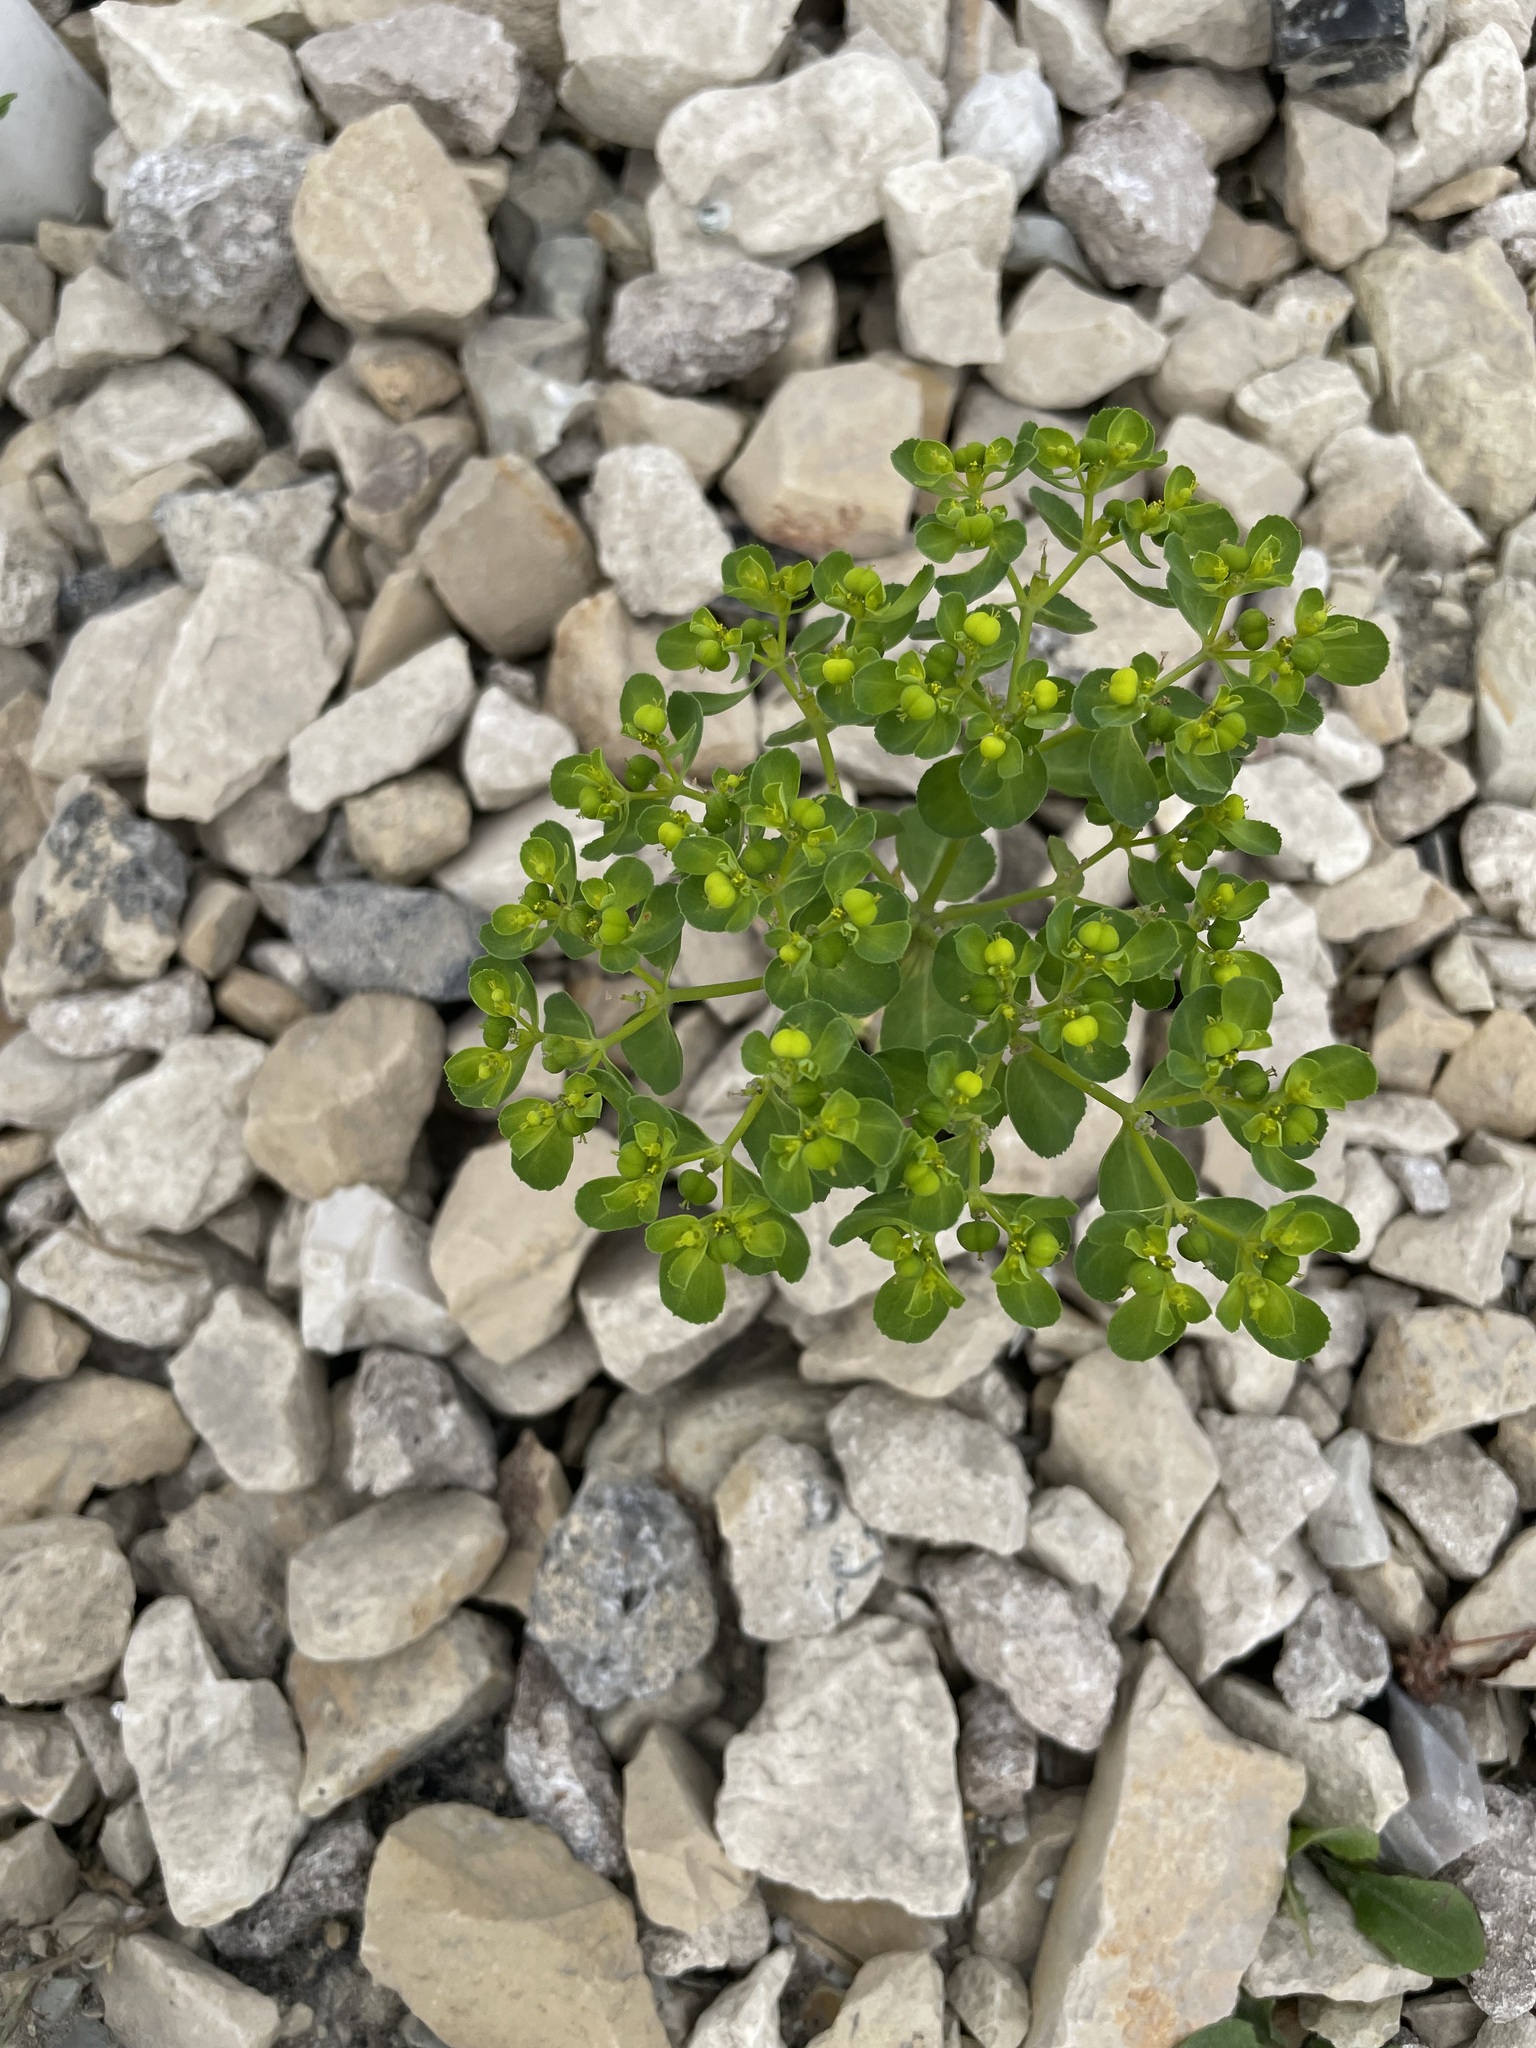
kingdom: Plantae
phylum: Tracheophyta
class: Magnoliopsida
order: Malpighiales
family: Euphorbiaceae
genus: Euphorbia
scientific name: Euphorbia helioscopia
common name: Sun spurge
